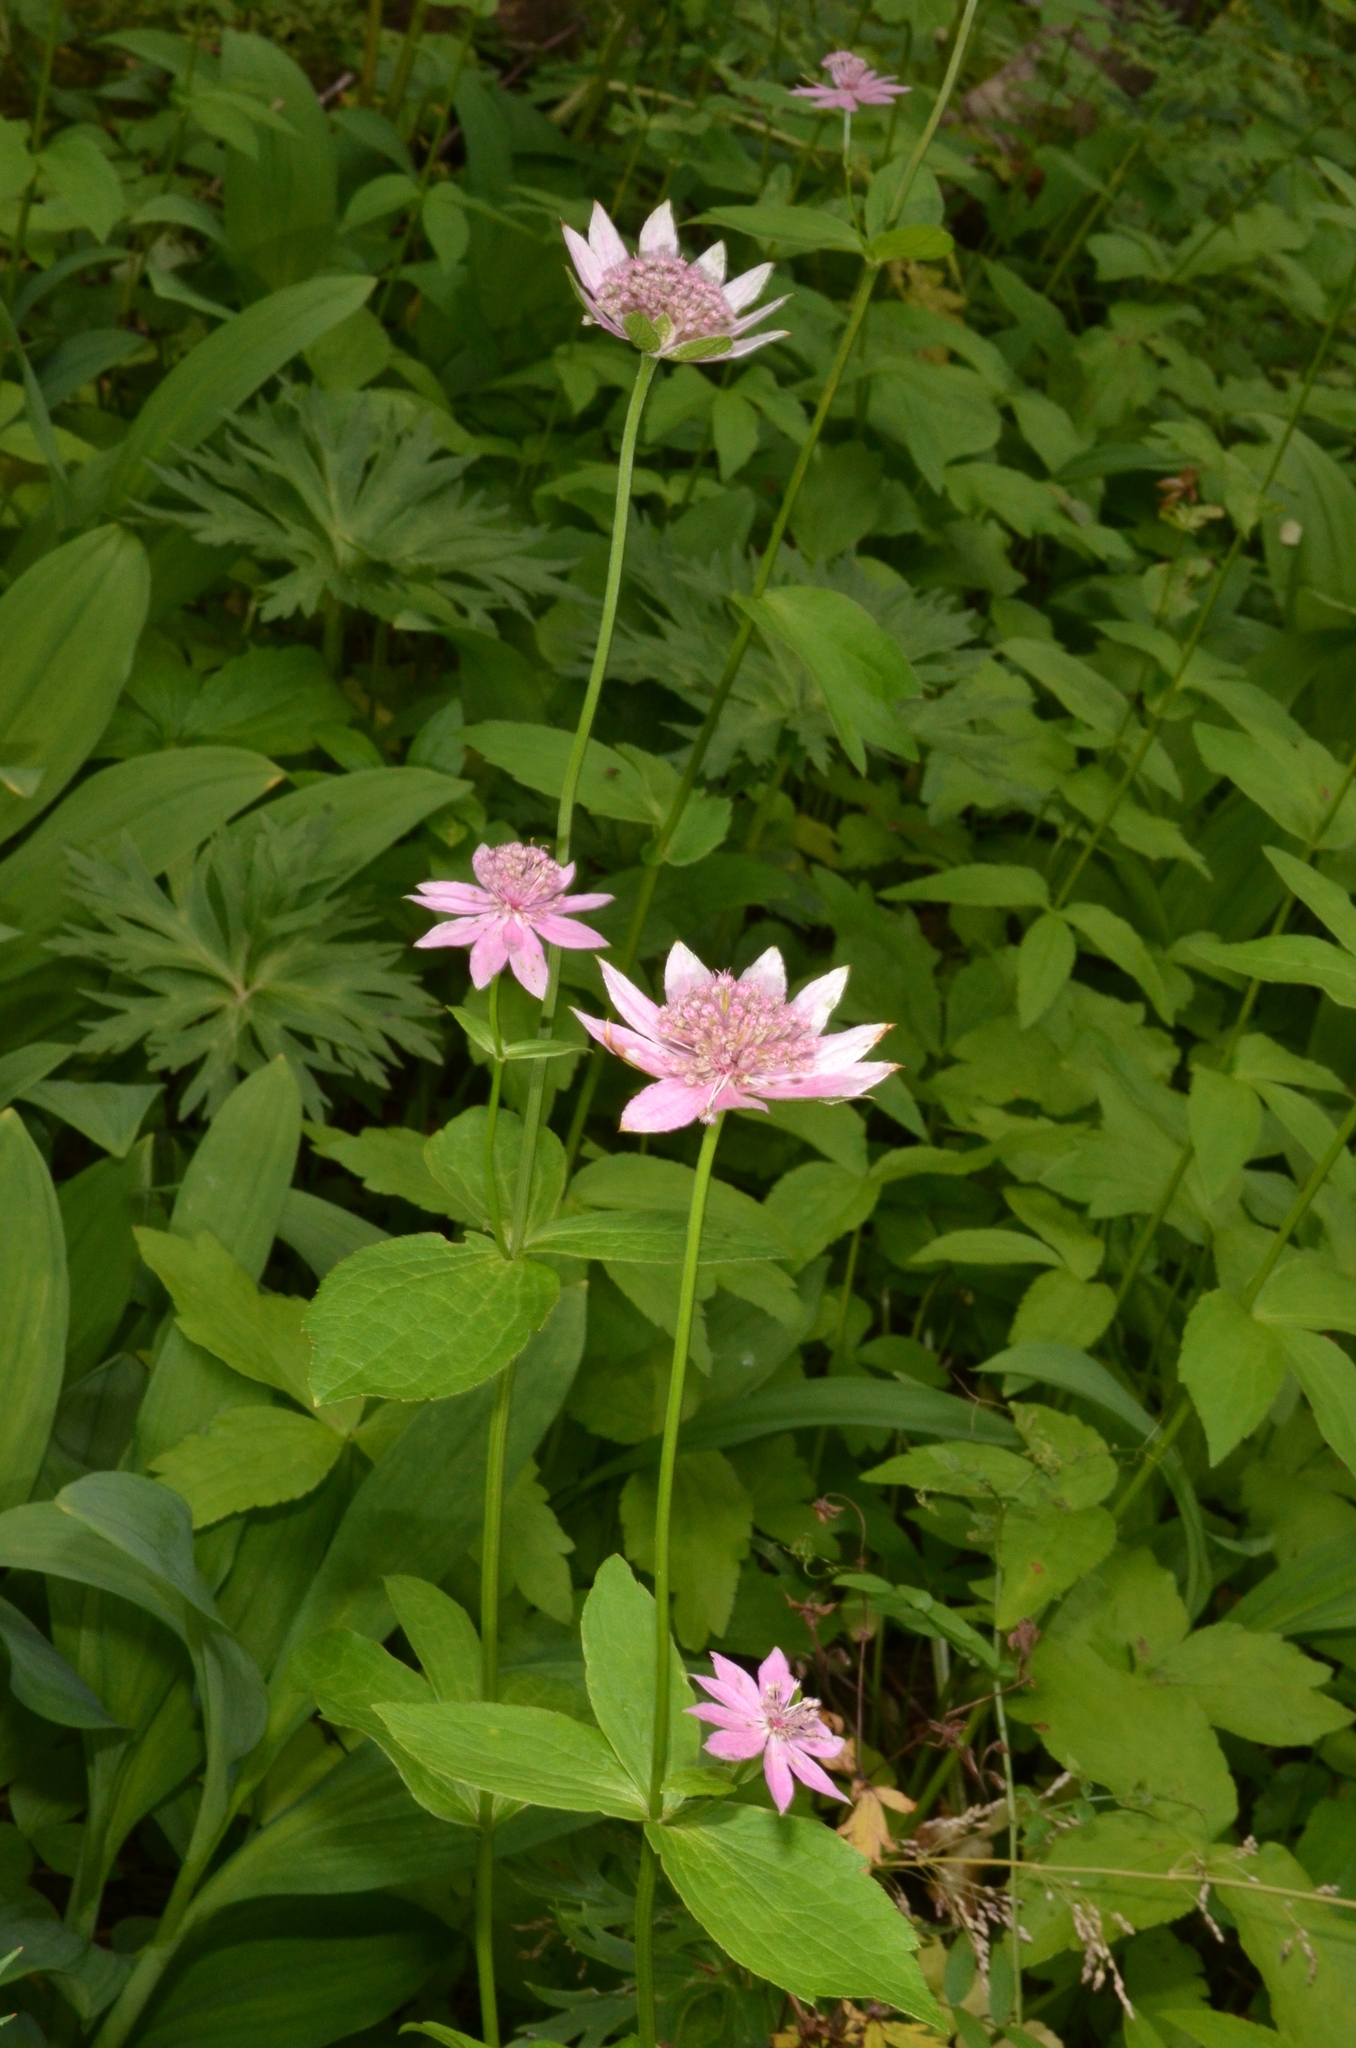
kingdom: Plantae
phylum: Tracheophyta
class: Magnoliopsida
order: Apiales
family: Apiaceae
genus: Astrantia
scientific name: Astrantia maxima
